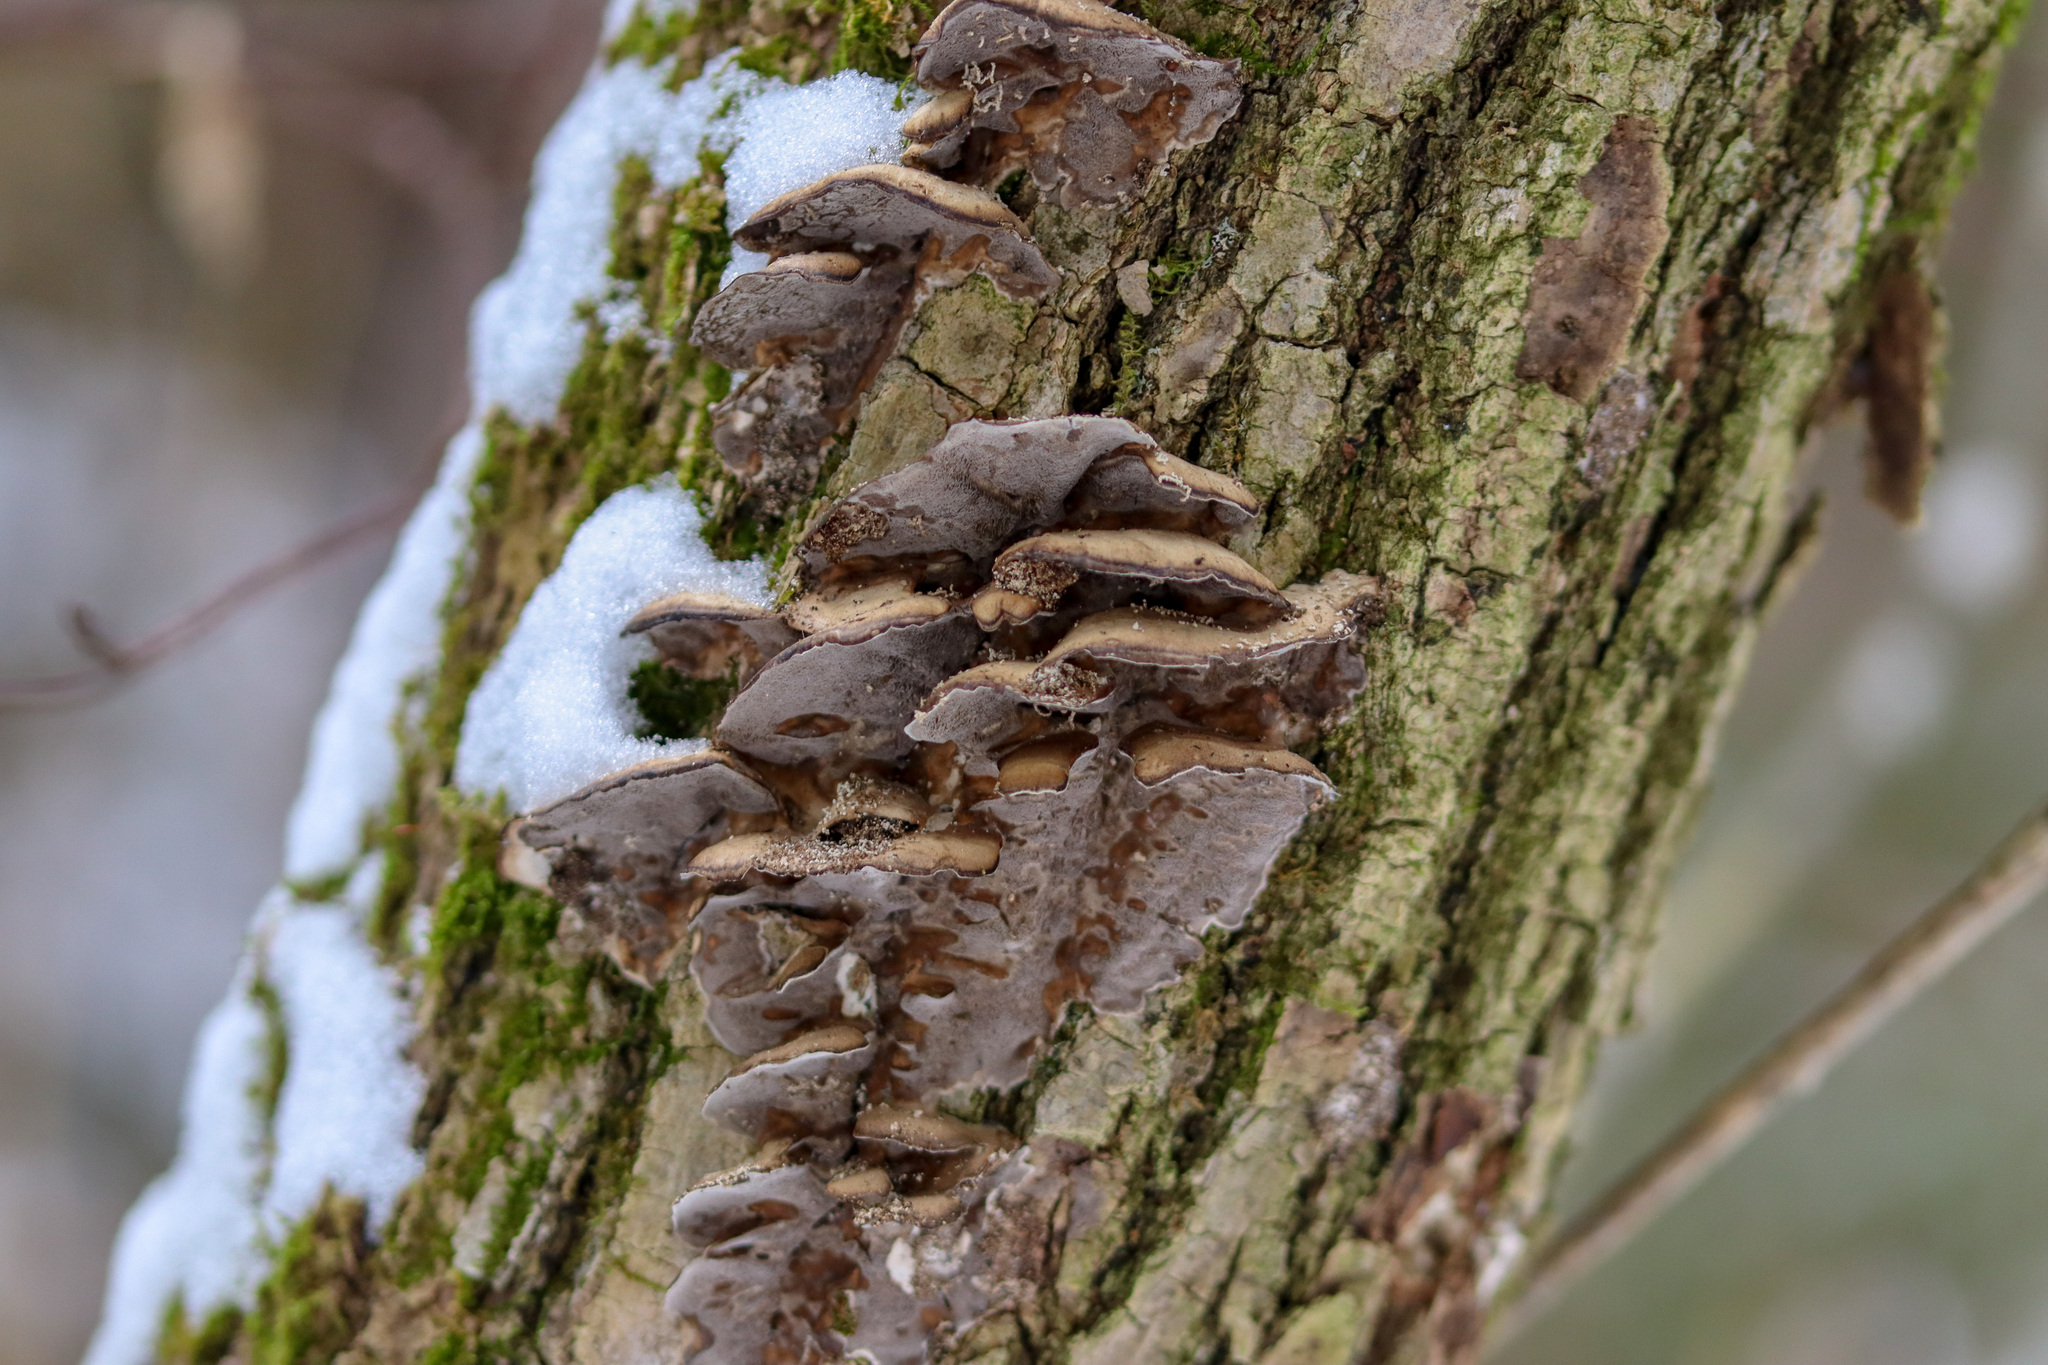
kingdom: Fungi
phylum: Basidiomycota
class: Agaricomycetes
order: Polyporales
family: Phanerochaetaceae
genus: Bjerkandera
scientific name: Bjerkandera adusta
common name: Smoky bracket
